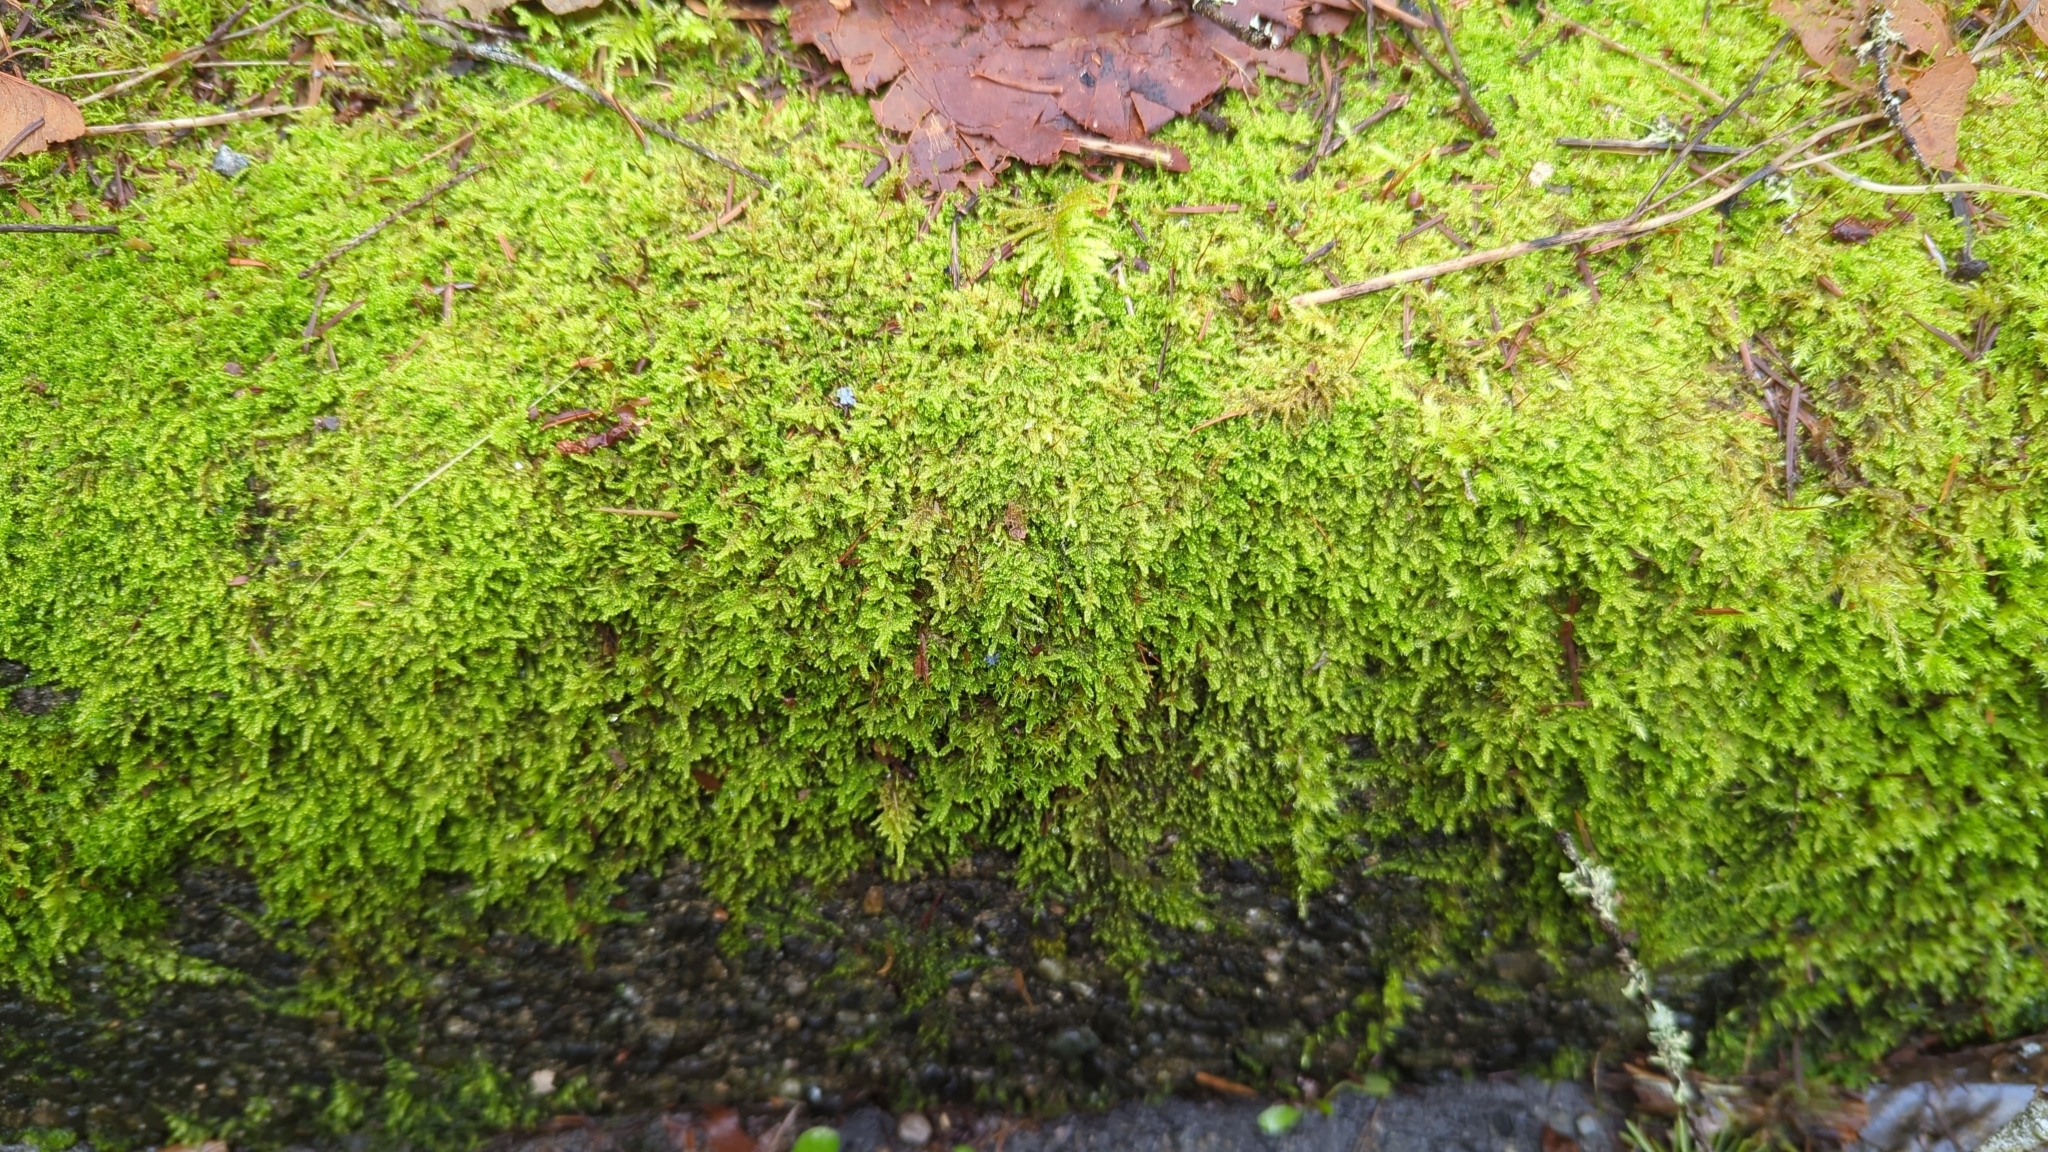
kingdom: Plantae
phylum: Bryophyta
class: Bryopsida
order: Hypnales
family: Stereodontaceae
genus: Stereodon
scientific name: Stereodon subimponens
